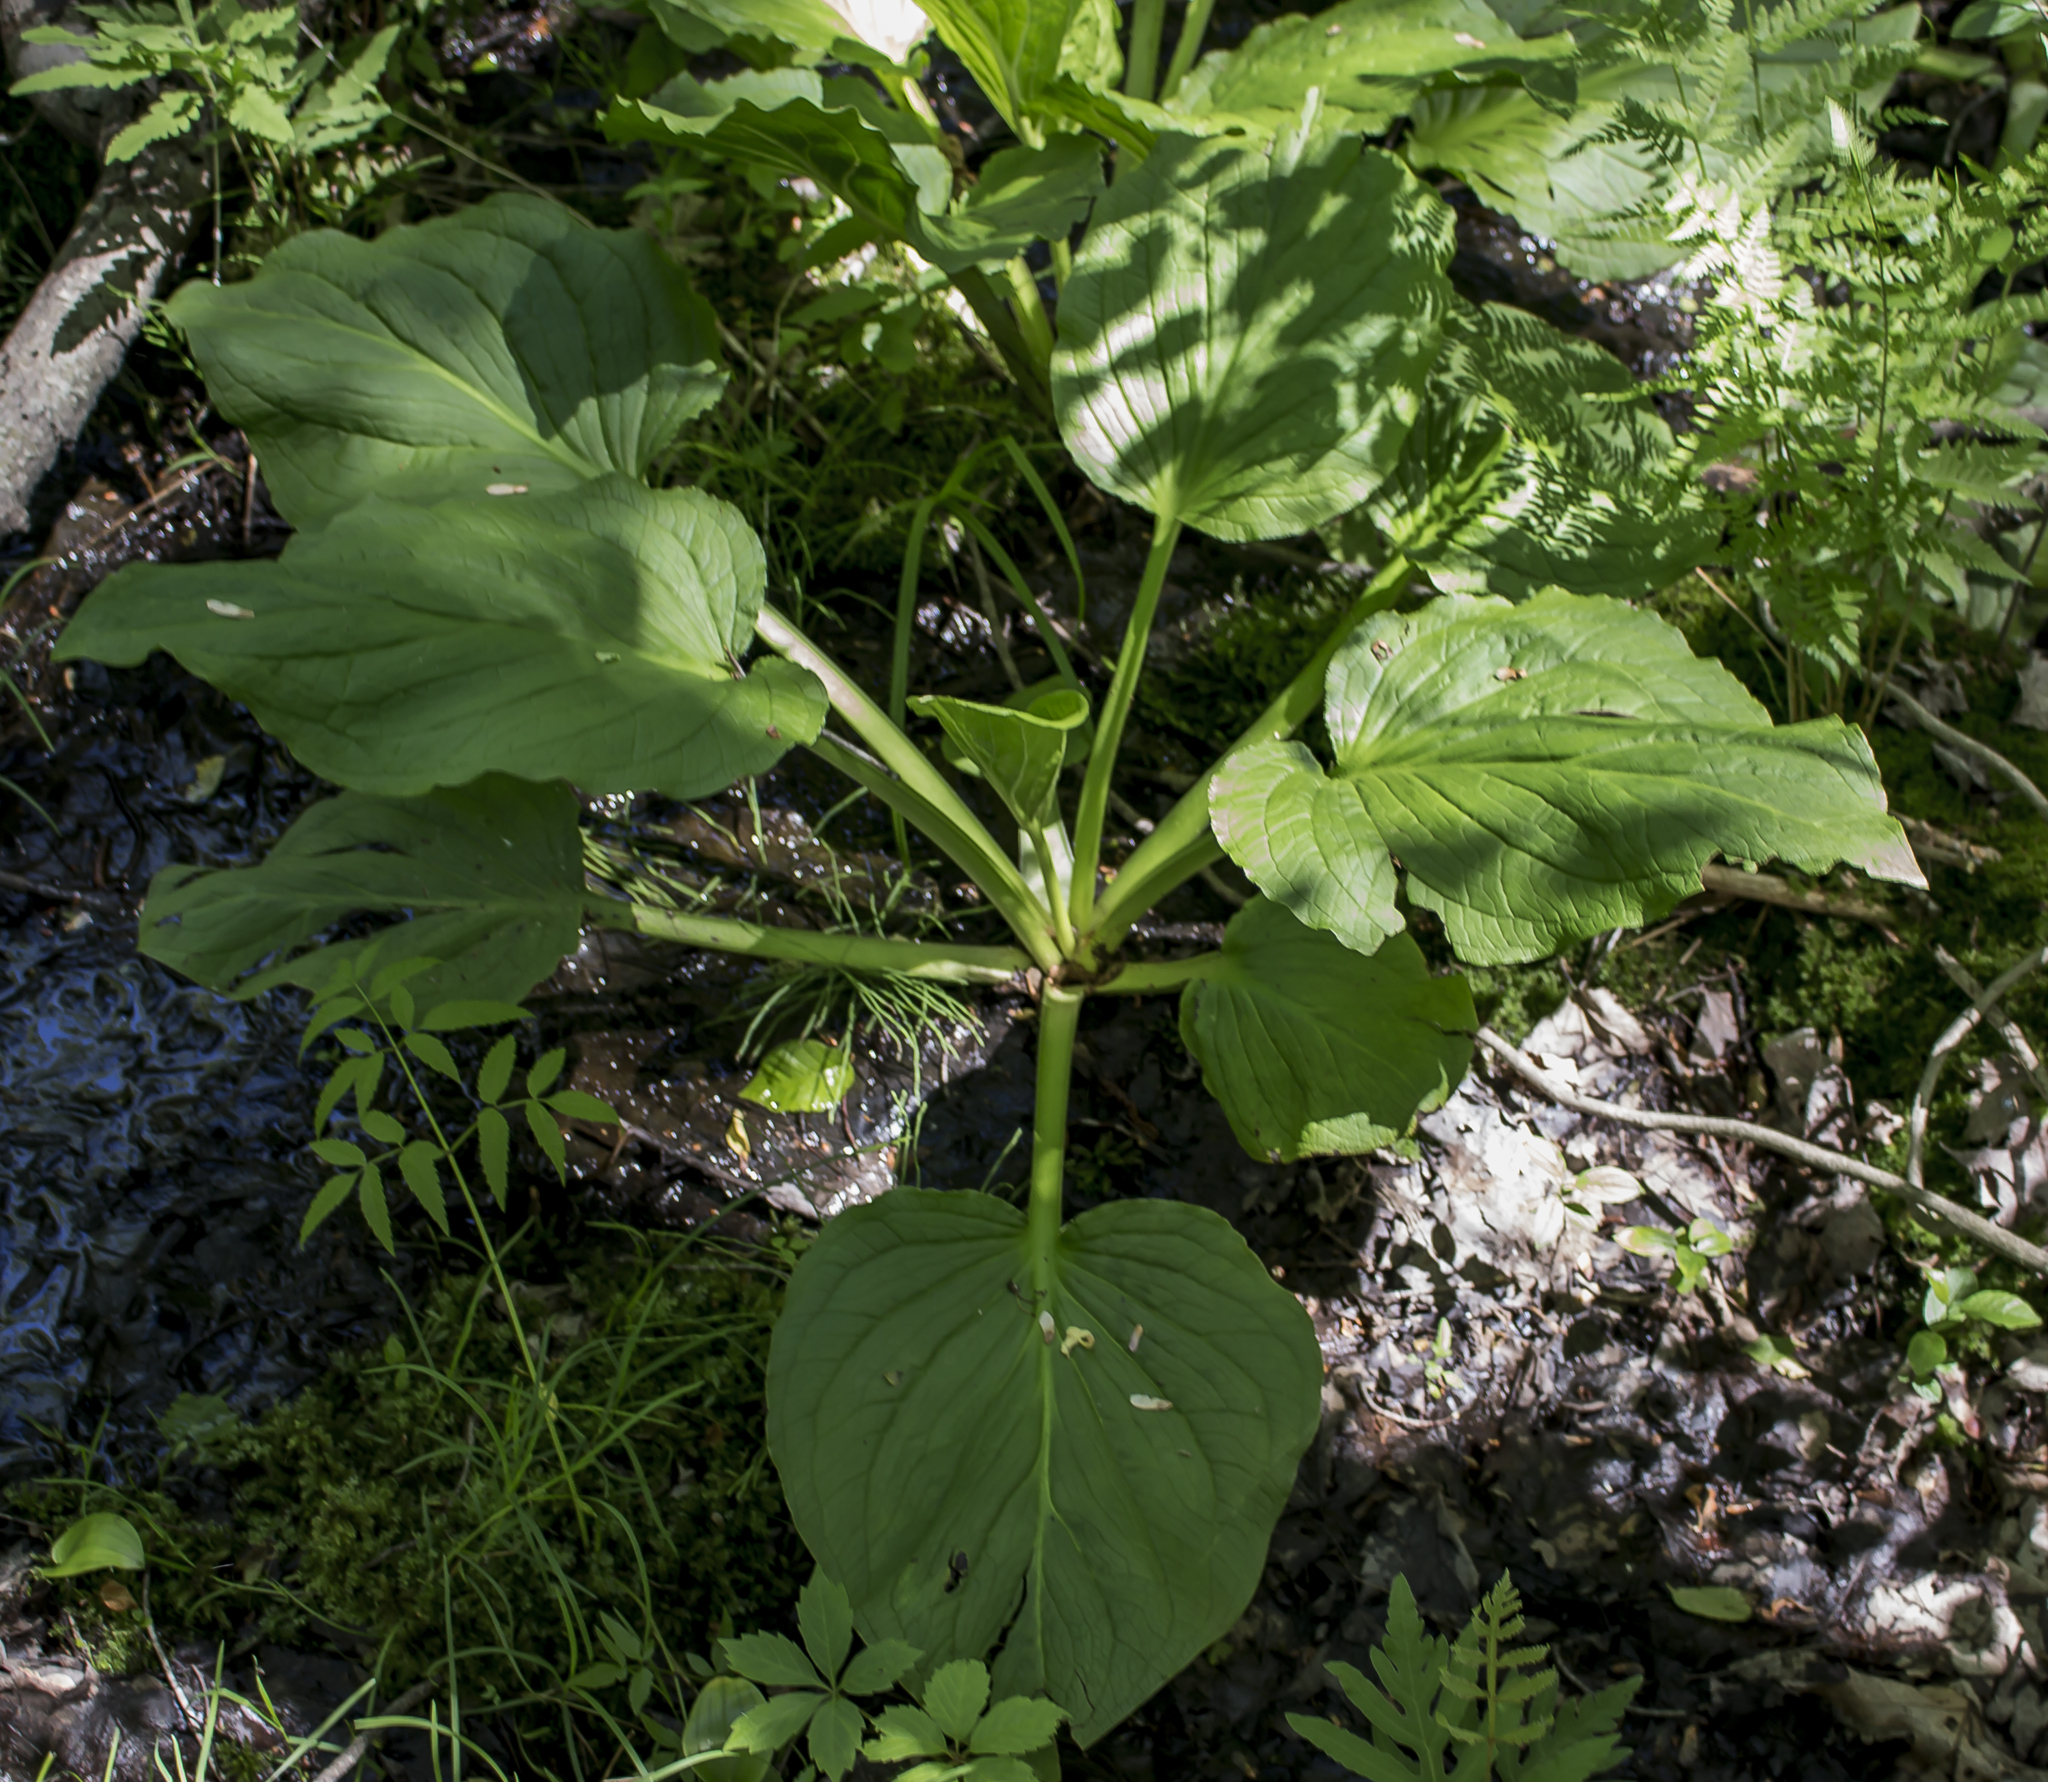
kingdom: Plantae
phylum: Tracheophyta
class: Liliopsida
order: Alismatales
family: Araceae
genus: Symplocarpus
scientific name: Symplocarpus foetidus
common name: Eastern skunk cabbage
